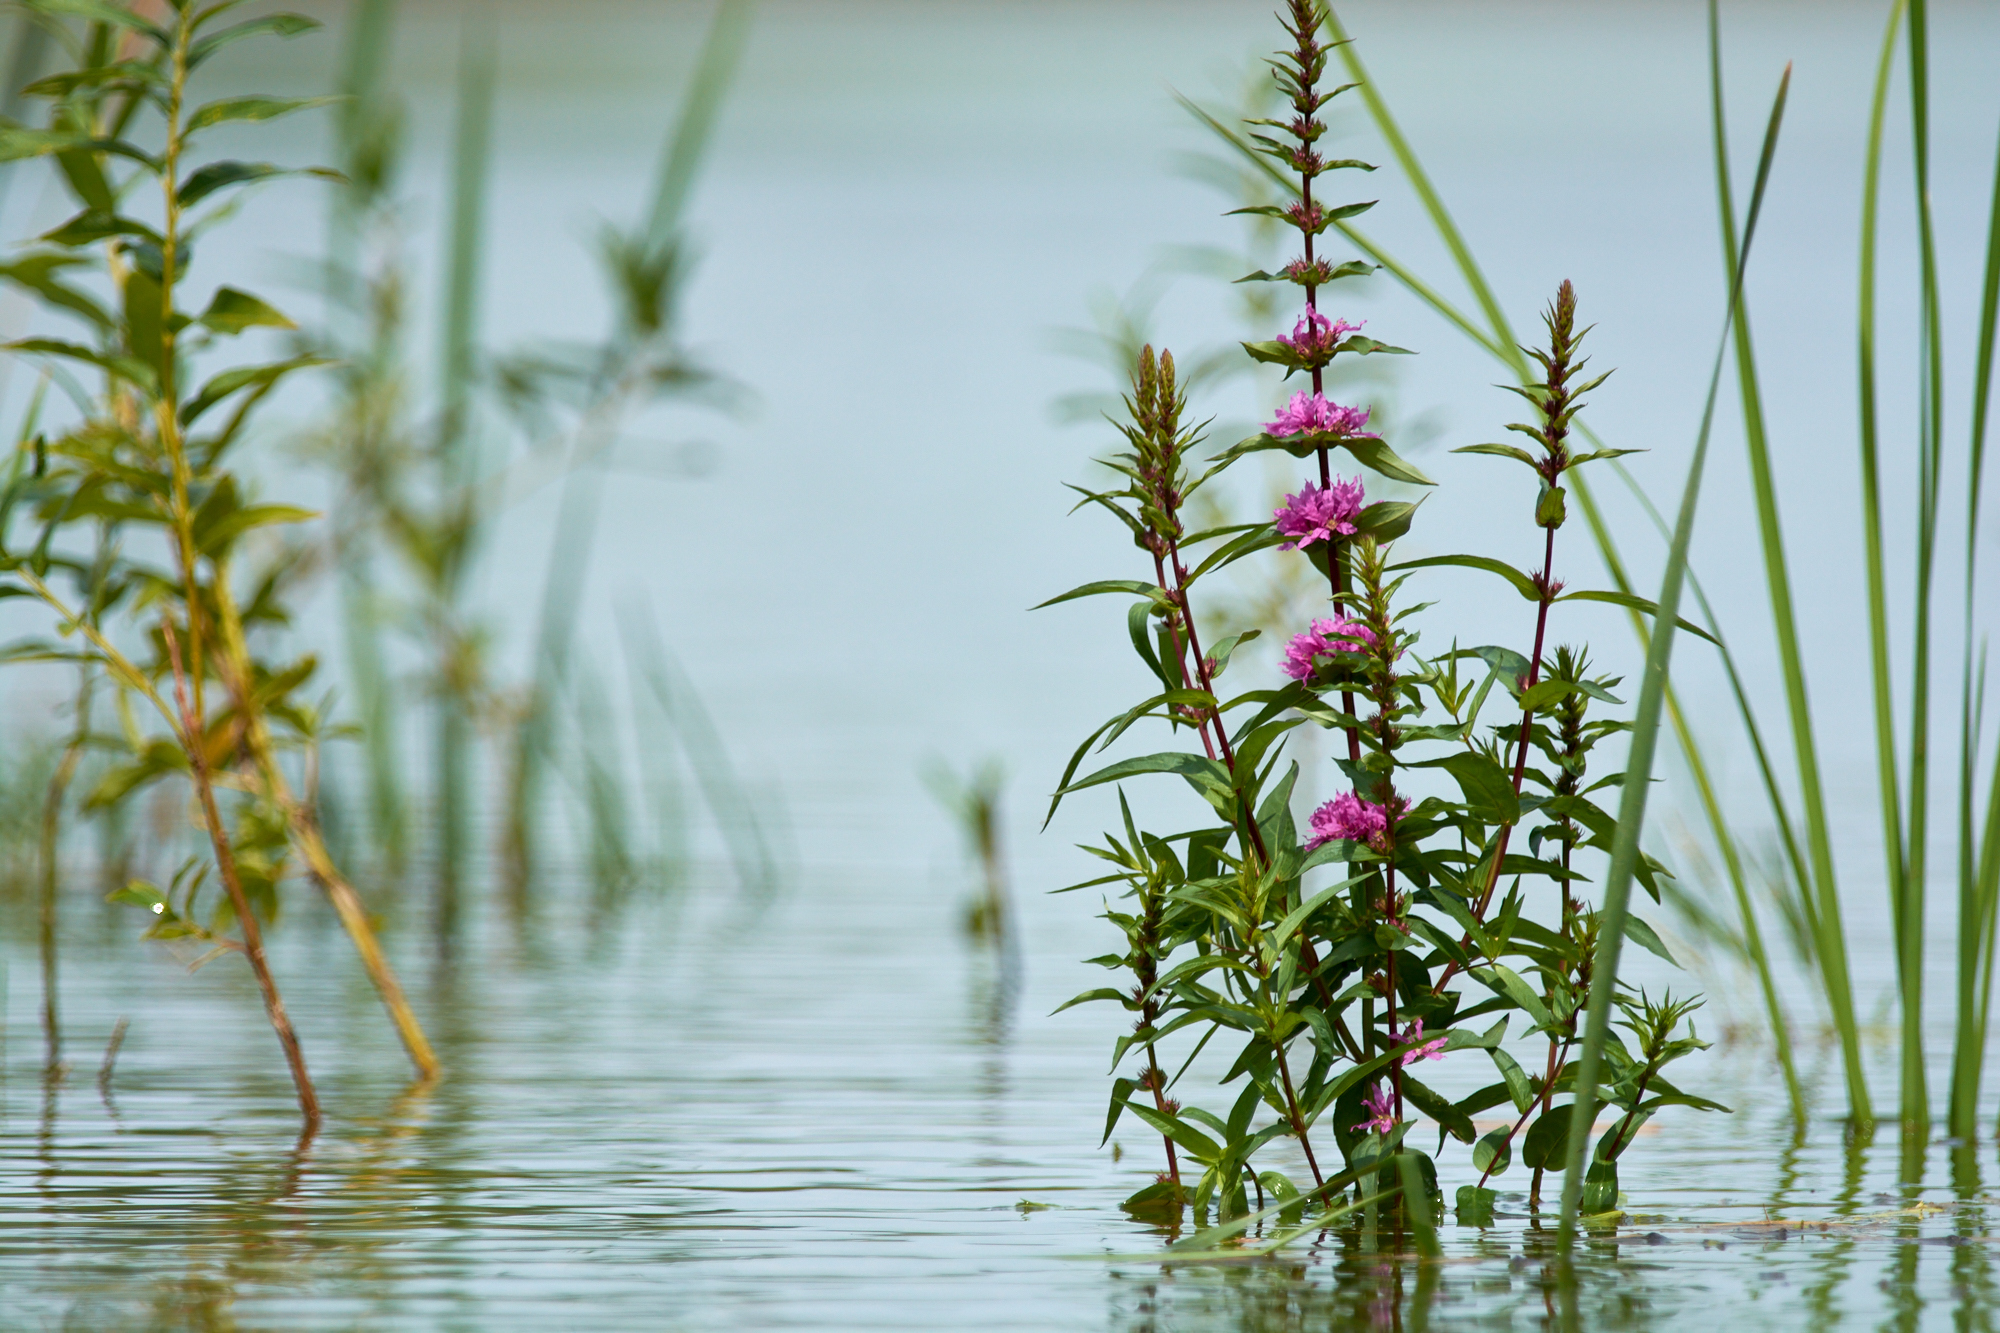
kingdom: Plantae
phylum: Tracheophyta
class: Magnoliopsida
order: Myrtales
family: Lythraceae
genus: Lythrum
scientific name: Lythrum salicaria
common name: Purple loosestrife
